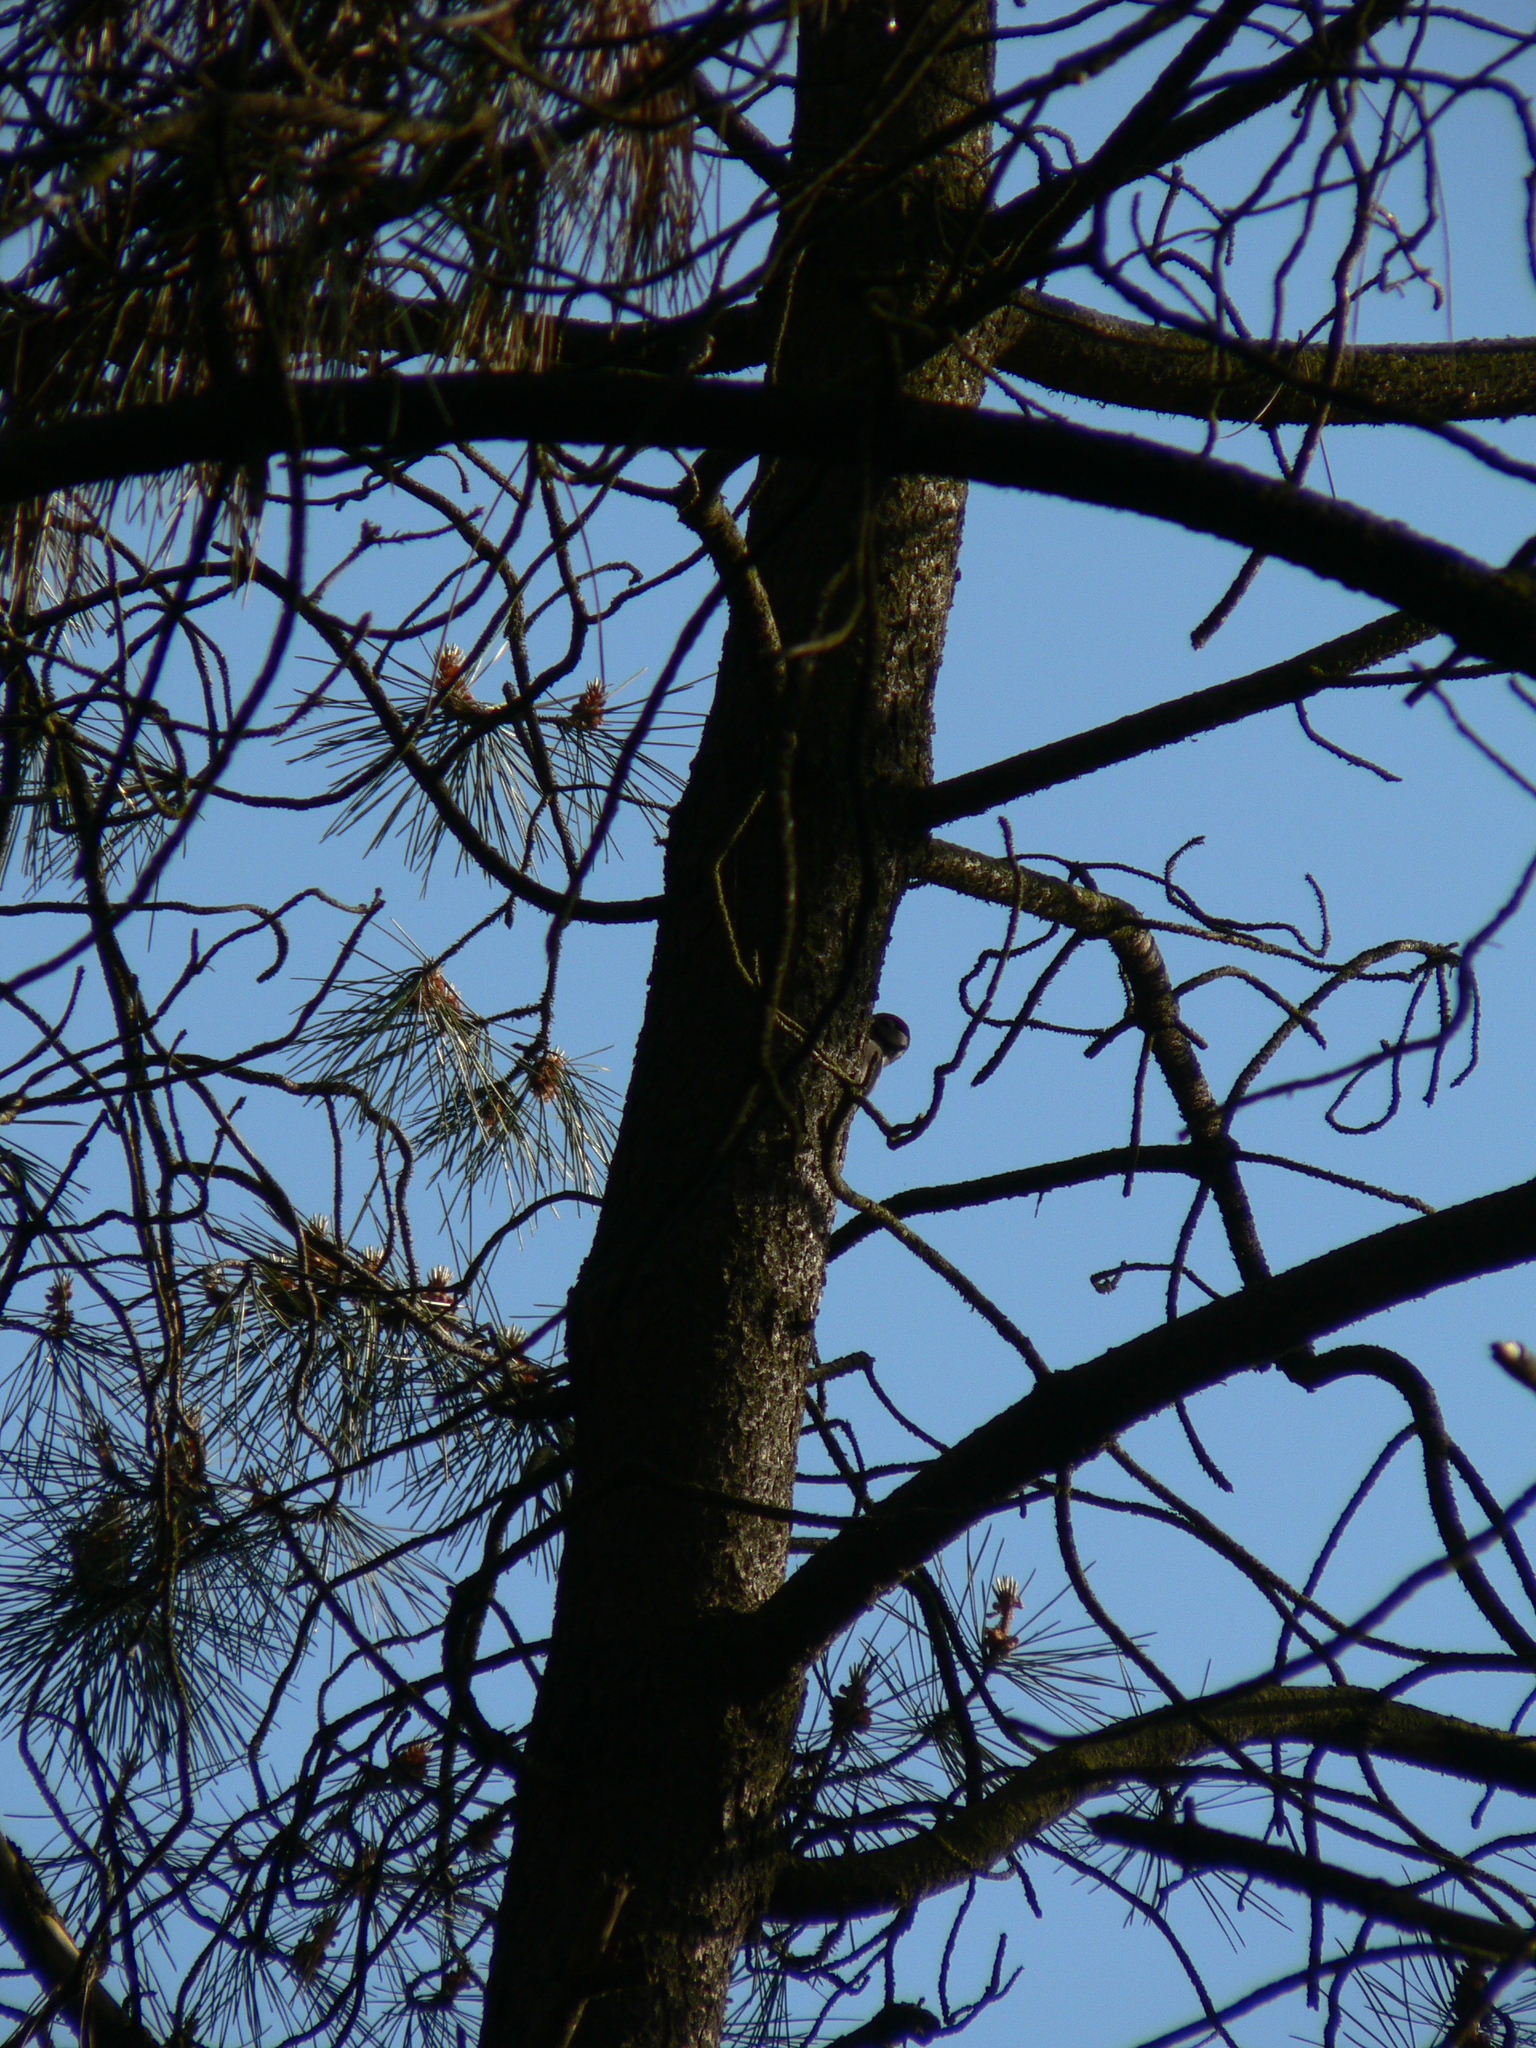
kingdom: Animalia
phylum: Chordata
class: Aves
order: Piciformes
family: Picidae
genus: Dendrocopos
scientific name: Dendrocopos major
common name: Great spotted woodpecker
